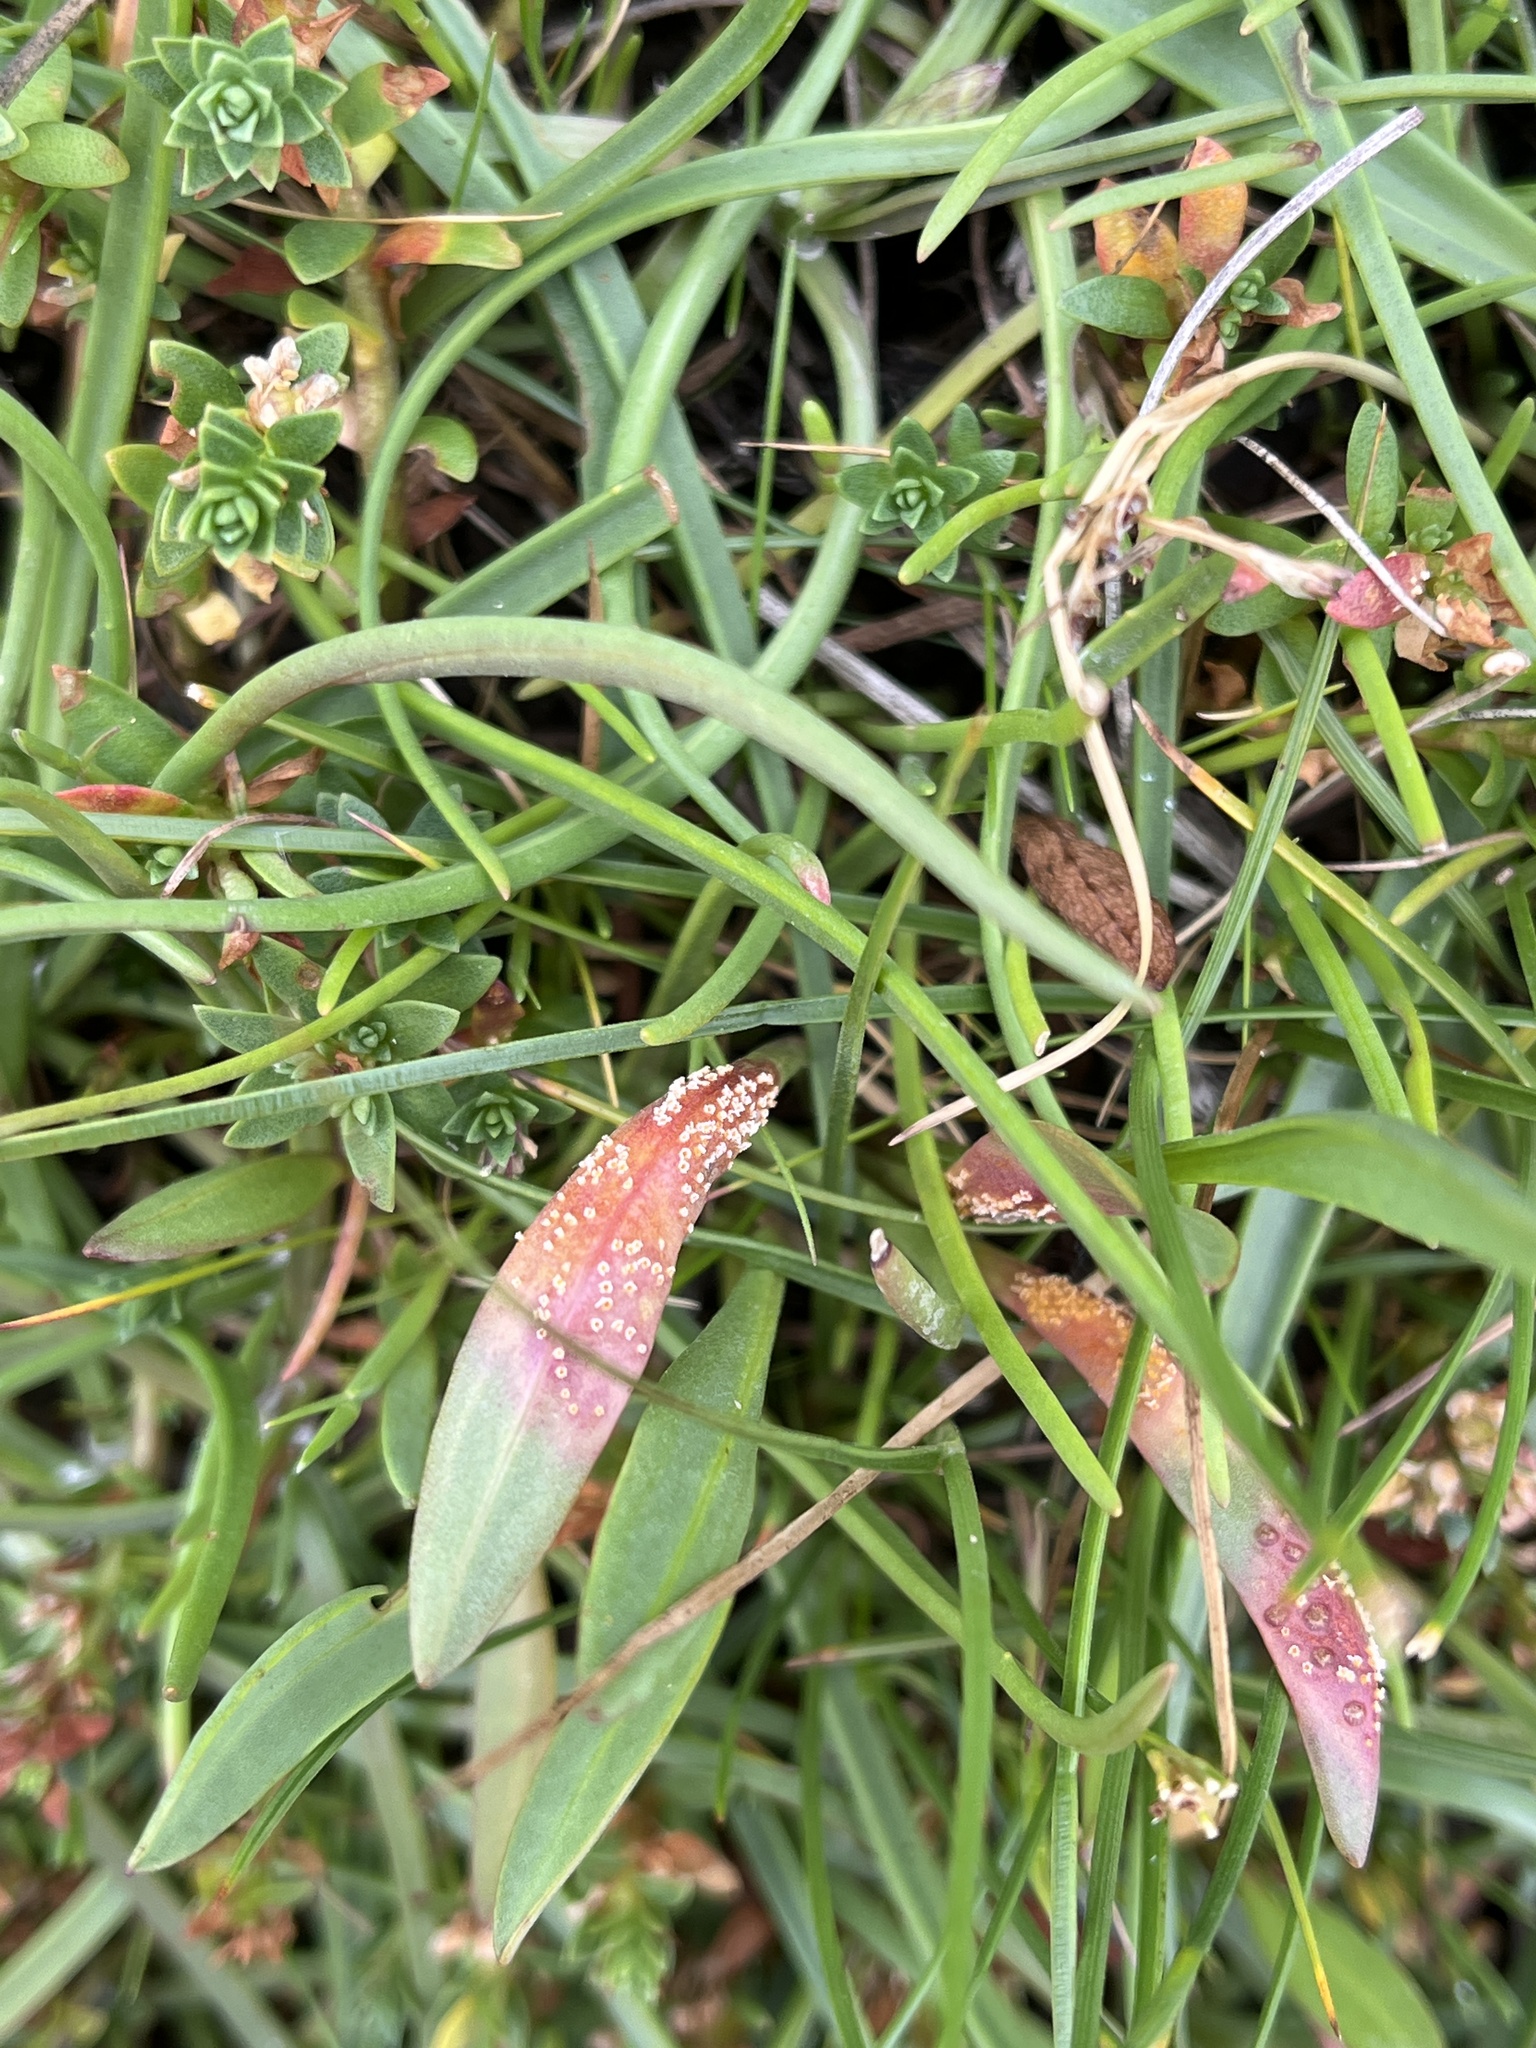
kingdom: Fungi
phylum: Basidiomycota
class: Pucciniomycetes
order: Pucciniales
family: Pucciniaceae
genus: Puccinia
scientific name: Puccinia dioicae
